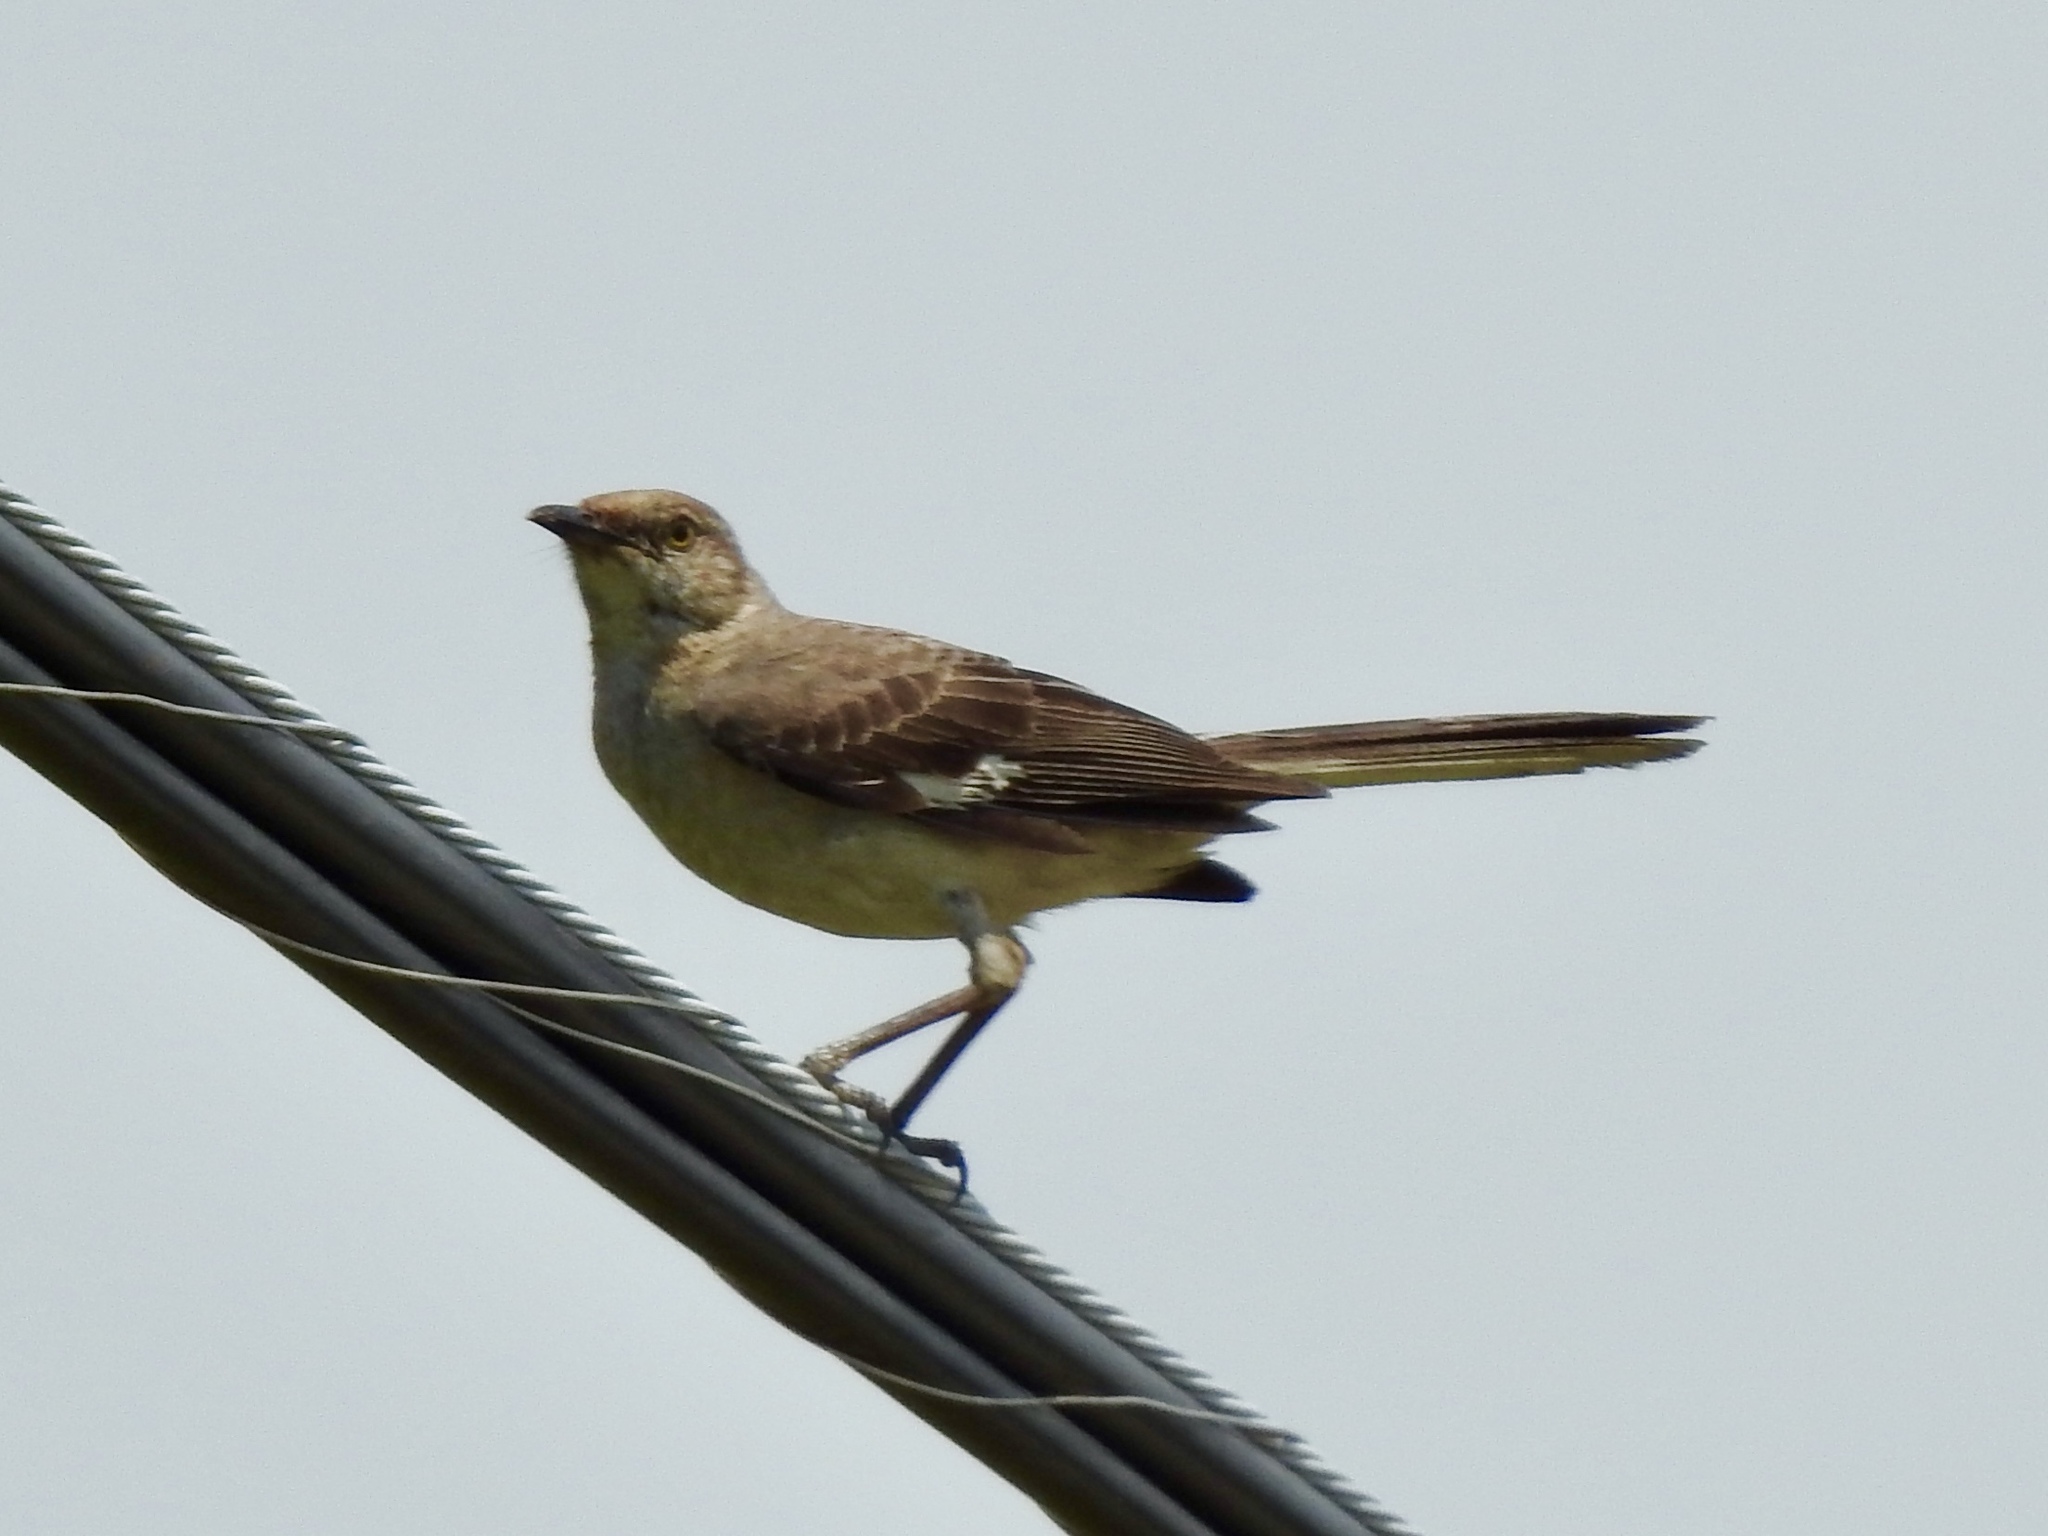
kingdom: Animalia
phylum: Chordata
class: Aves
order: Passeriformes
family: Mimidae
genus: Mimus
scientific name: Mimus polyglottos
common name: Northern mockingbird
